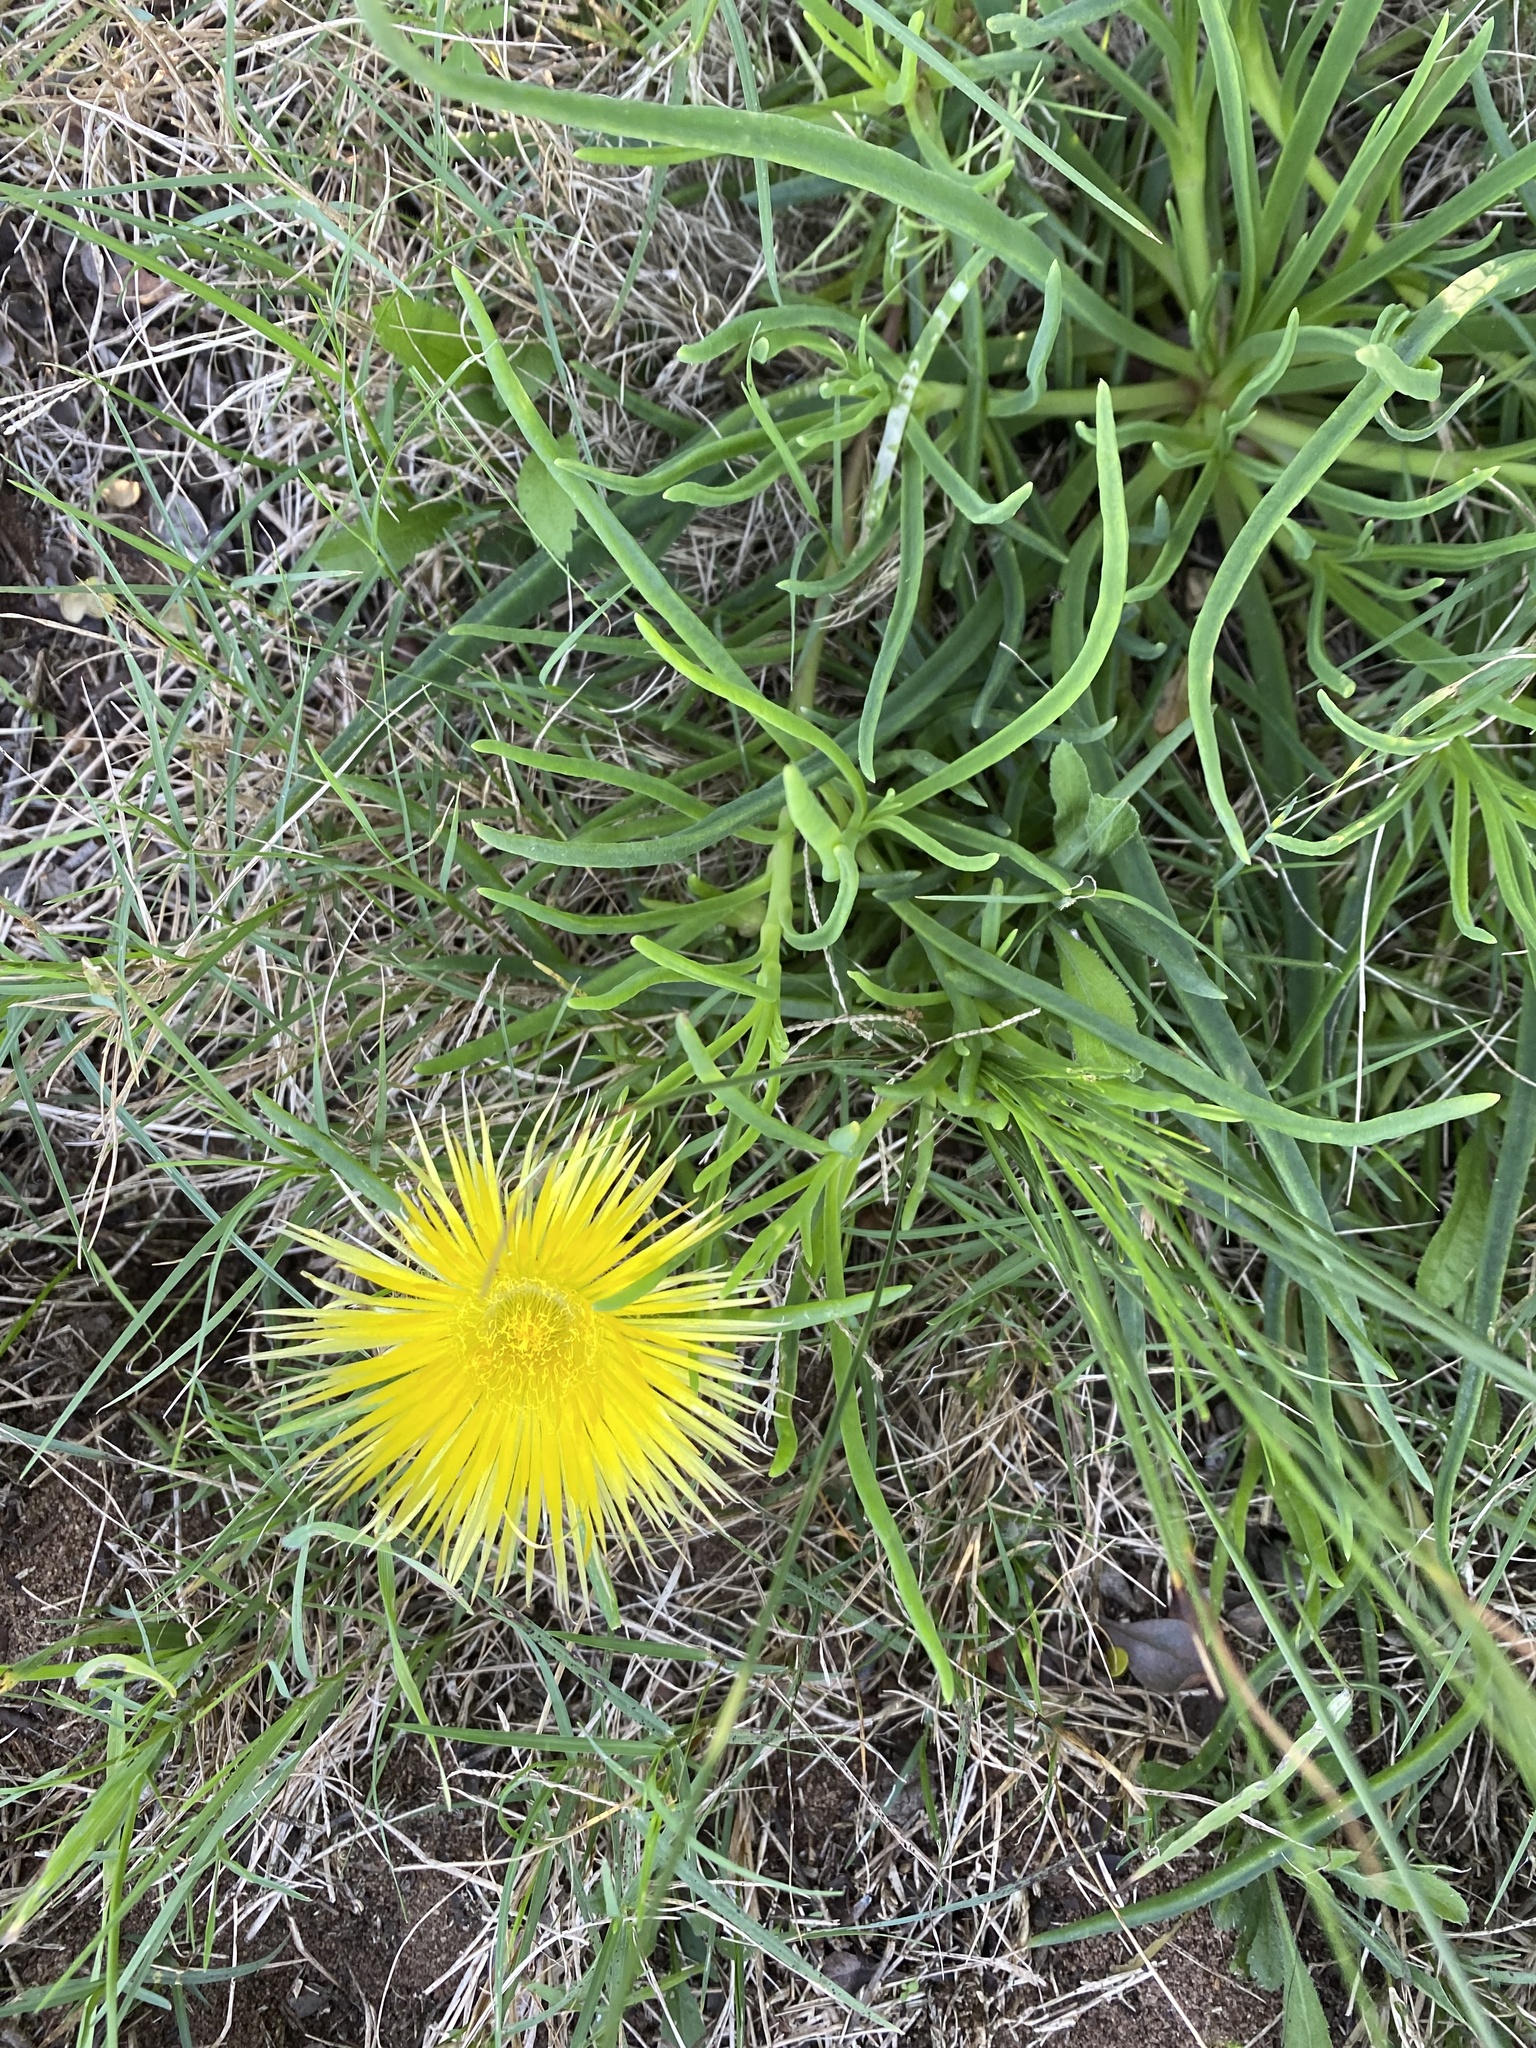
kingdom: Plantae
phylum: Tracheophyta
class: Magnoliopsida
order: Caryophyllales
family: Aizoaceae
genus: Conicosia
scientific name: Conicosia pugioniformis
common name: Narrow-leaved iceplant
